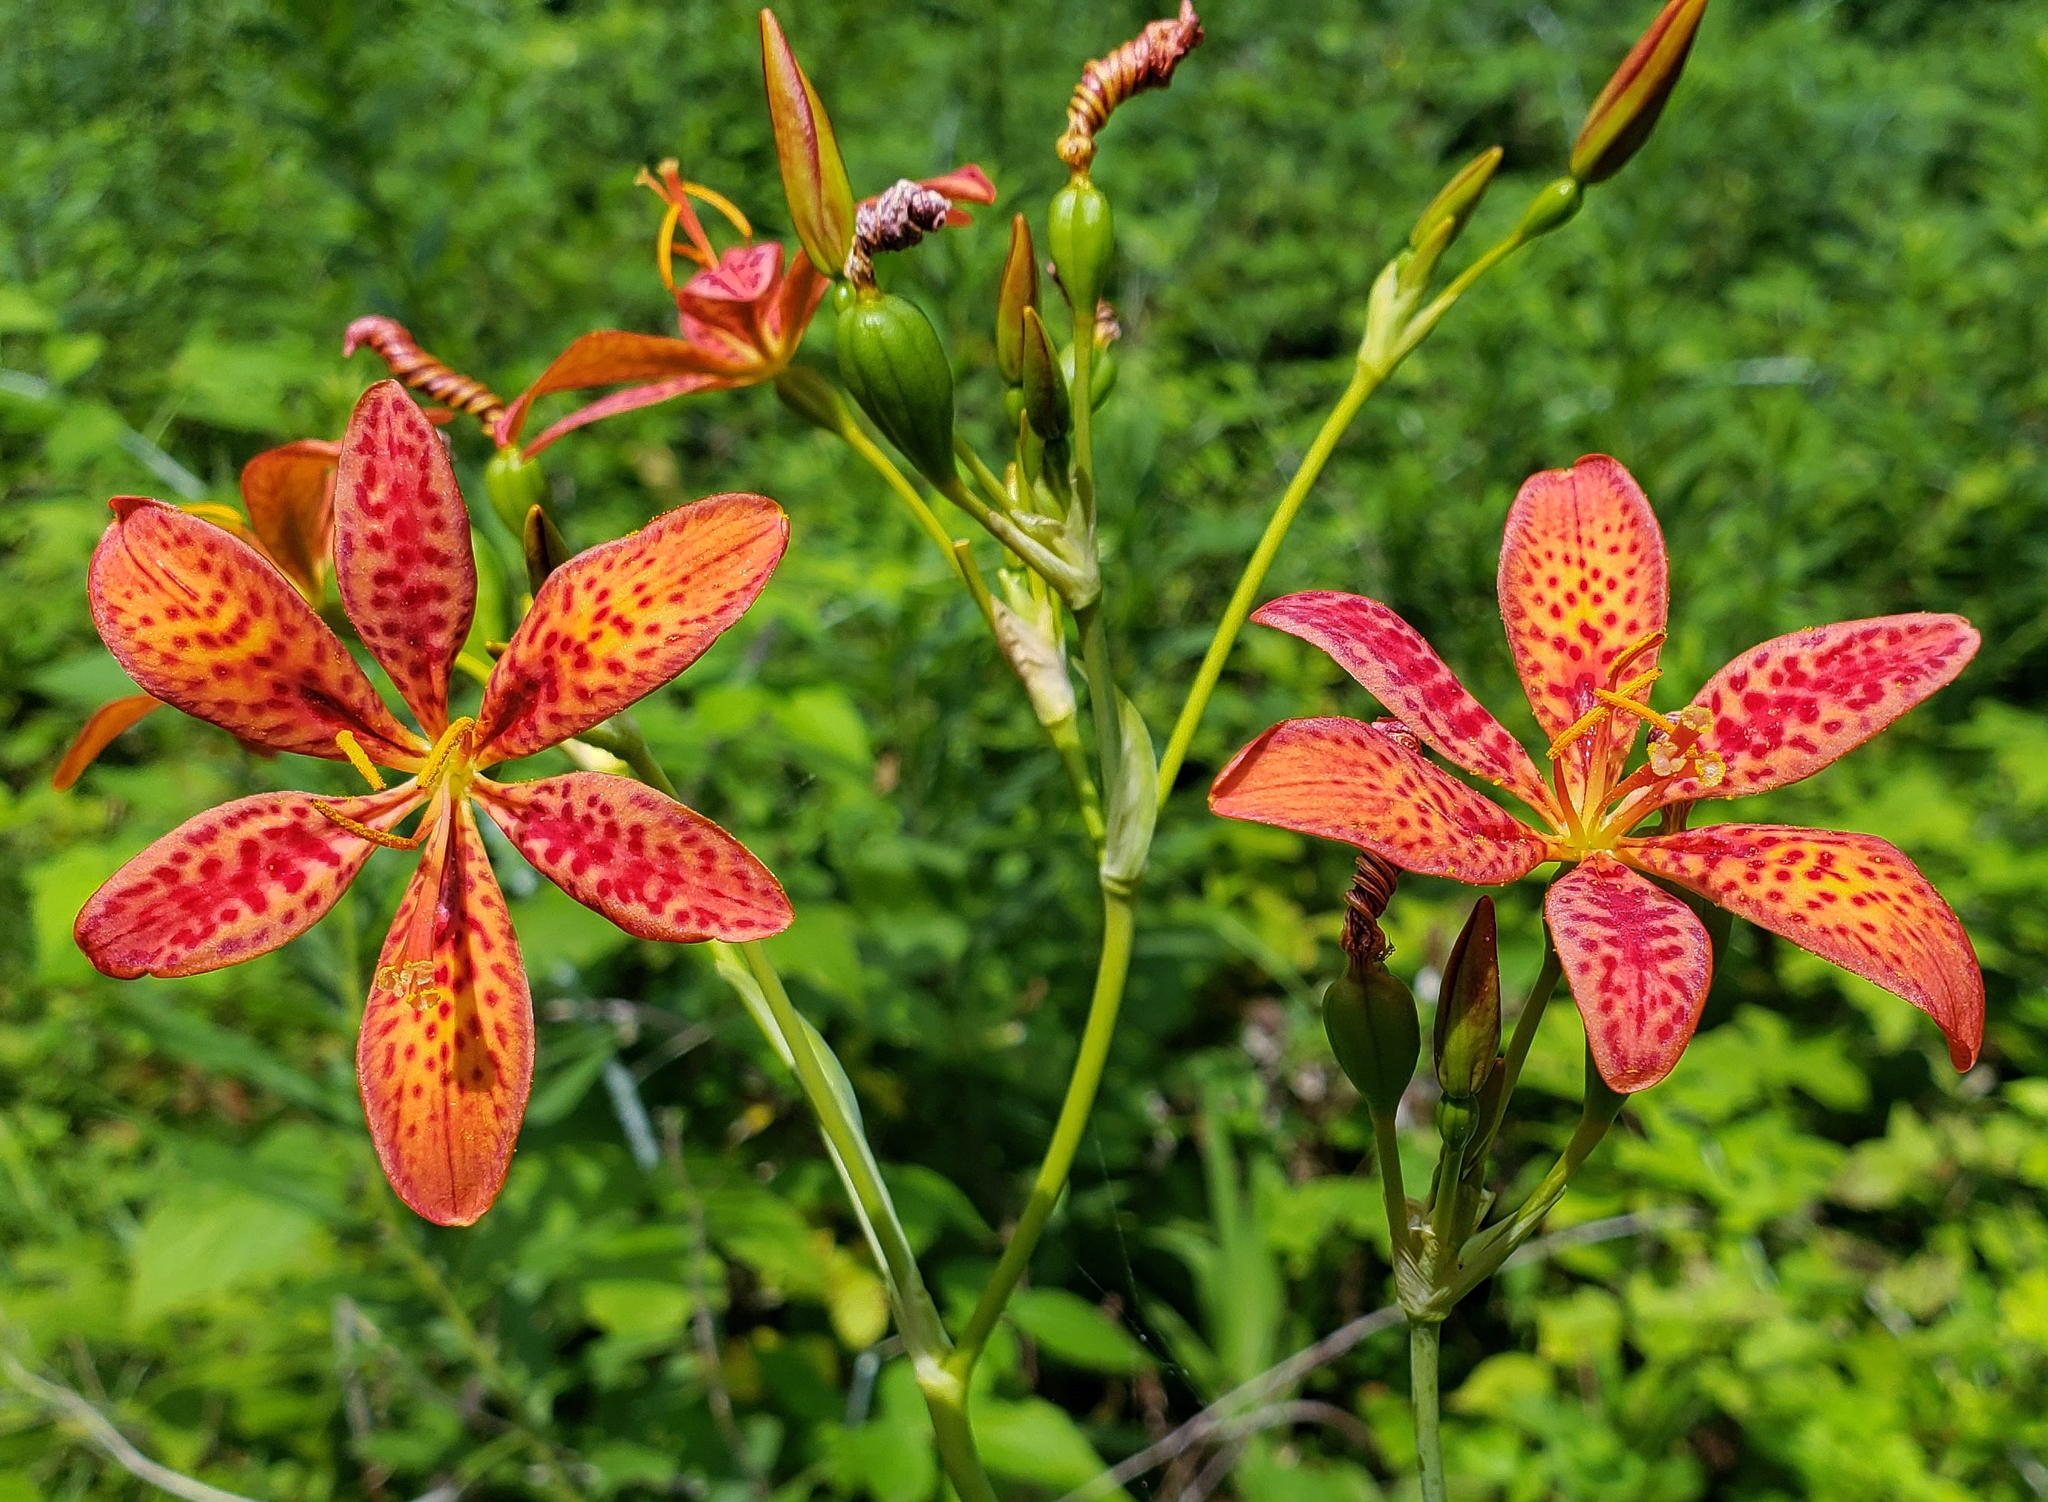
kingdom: Plantae
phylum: Tracheophyta
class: Liliopsida
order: Asparagales
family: Iridaceae
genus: Iris
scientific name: Iris domestica
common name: Belamcanda
